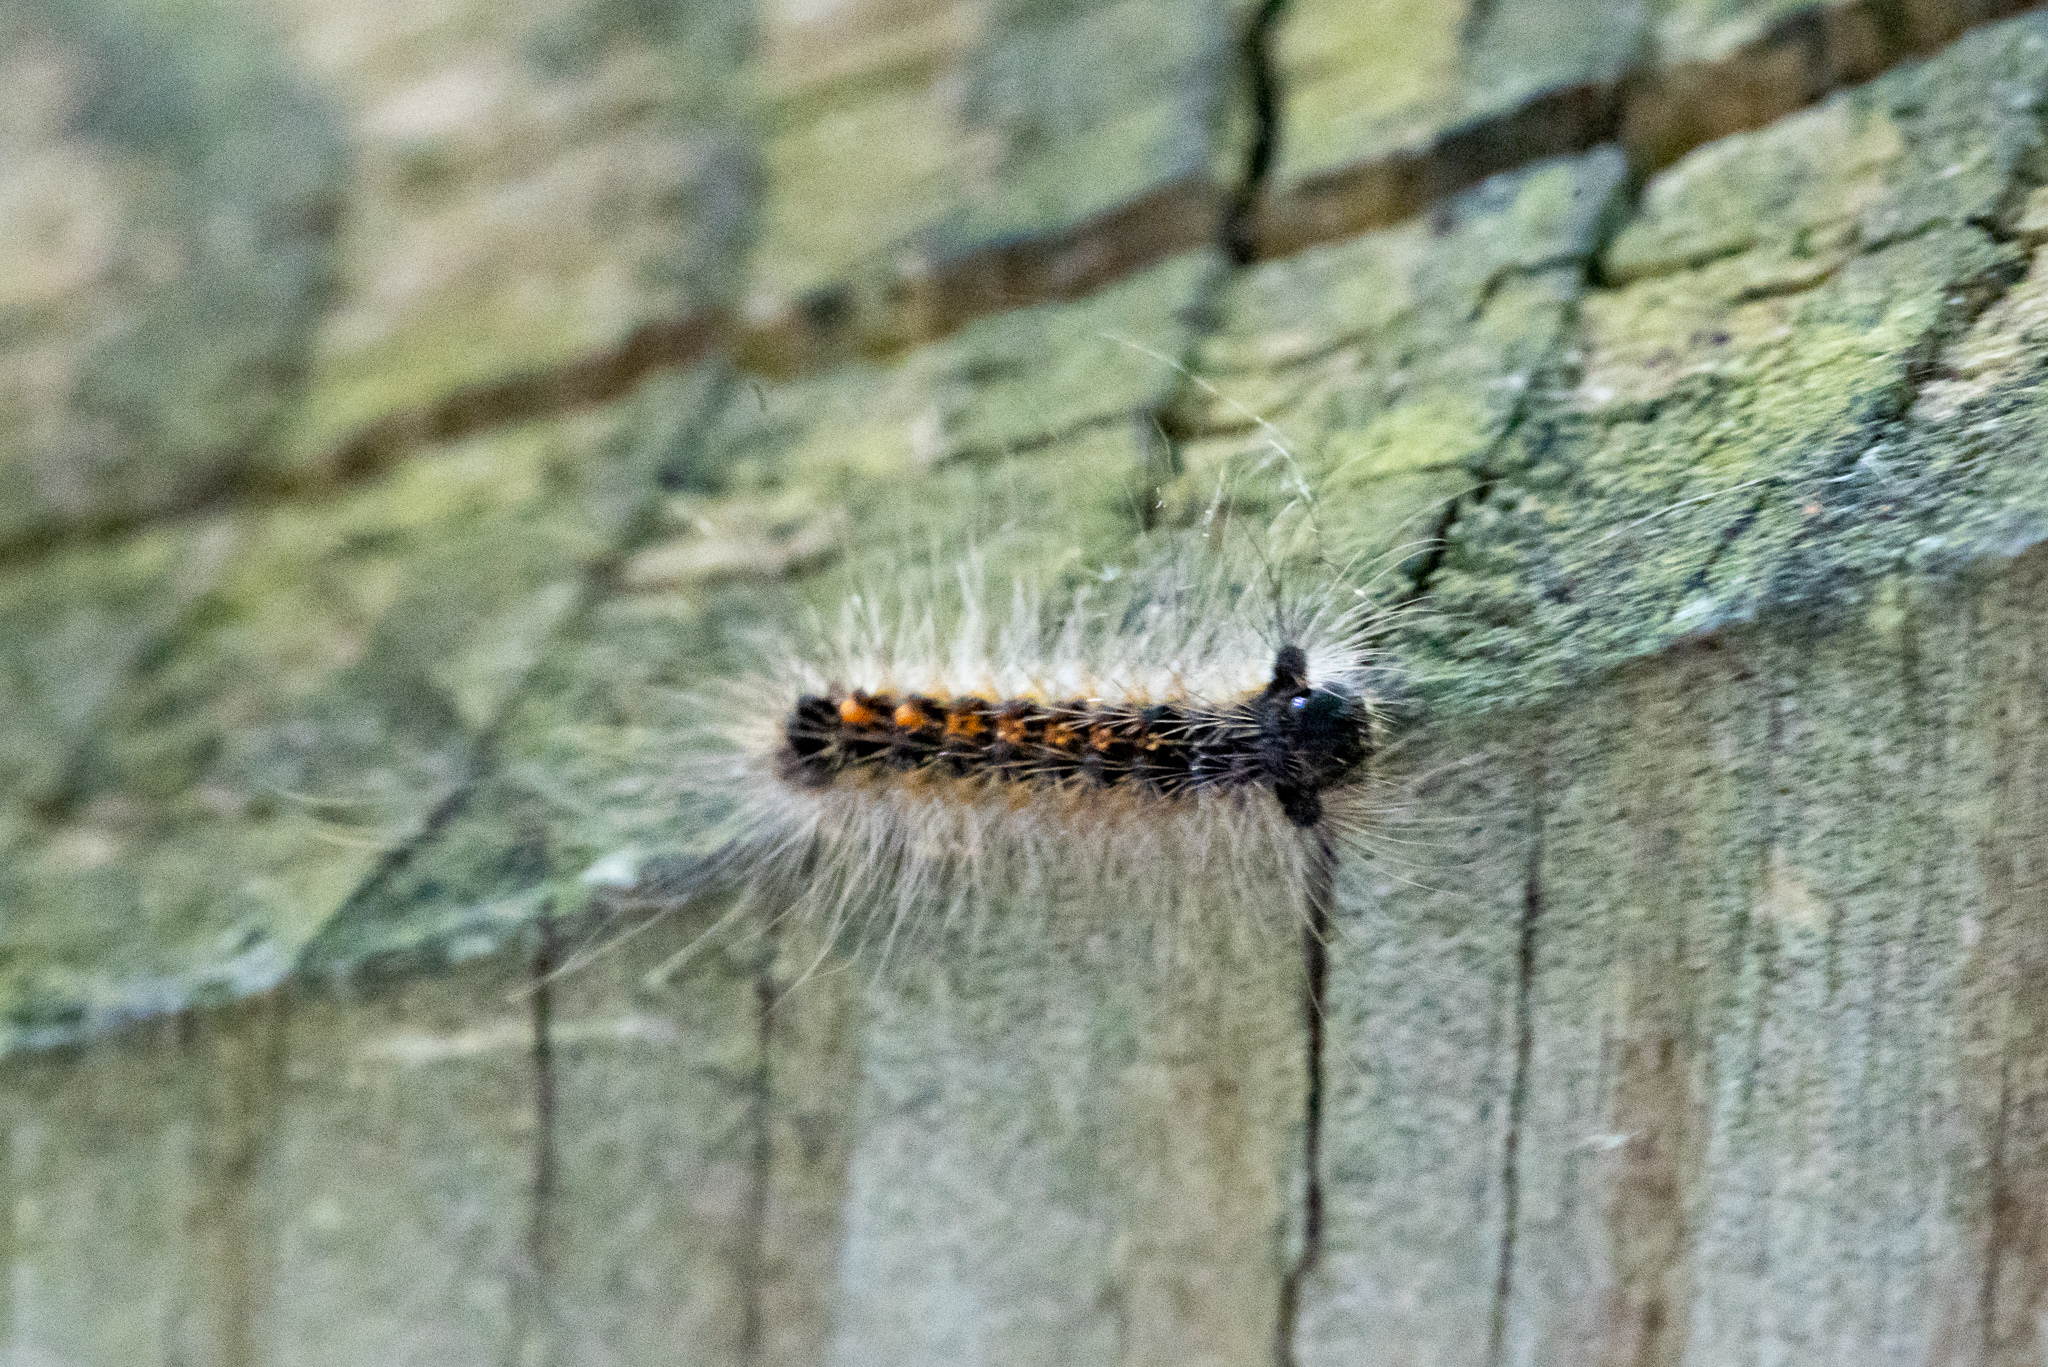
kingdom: Animalia
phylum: Arthropoda
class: Insecta
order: Lepidoptera
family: Erebidae
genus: Lymantria
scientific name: Lymantria dispar
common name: Gypsy moth
